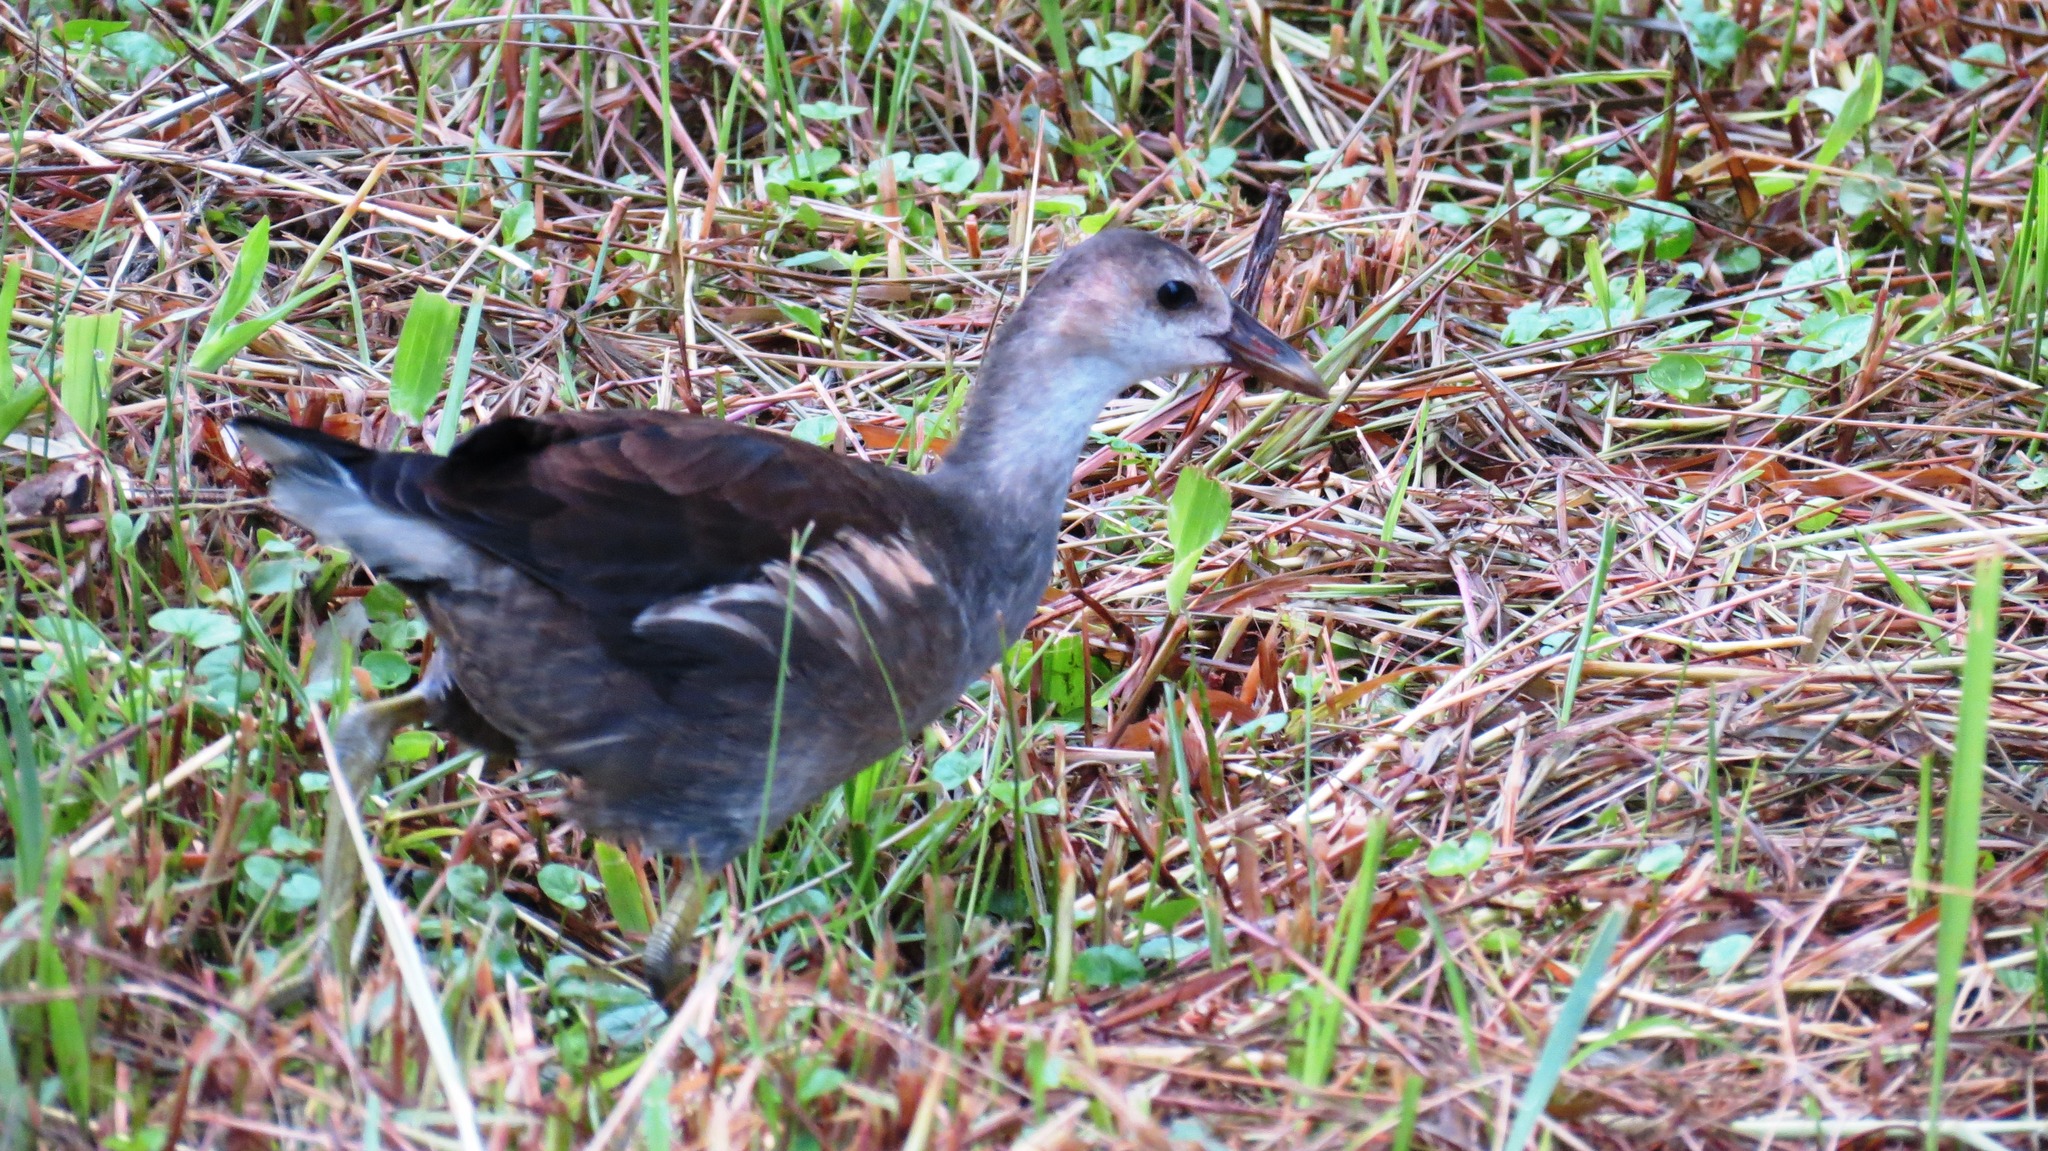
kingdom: Animalia
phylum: Chordata
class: Aves
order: Gruiformes
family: Rallidae
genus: Gallinula
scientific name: Gallinula chloropus
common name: Common moorhen
